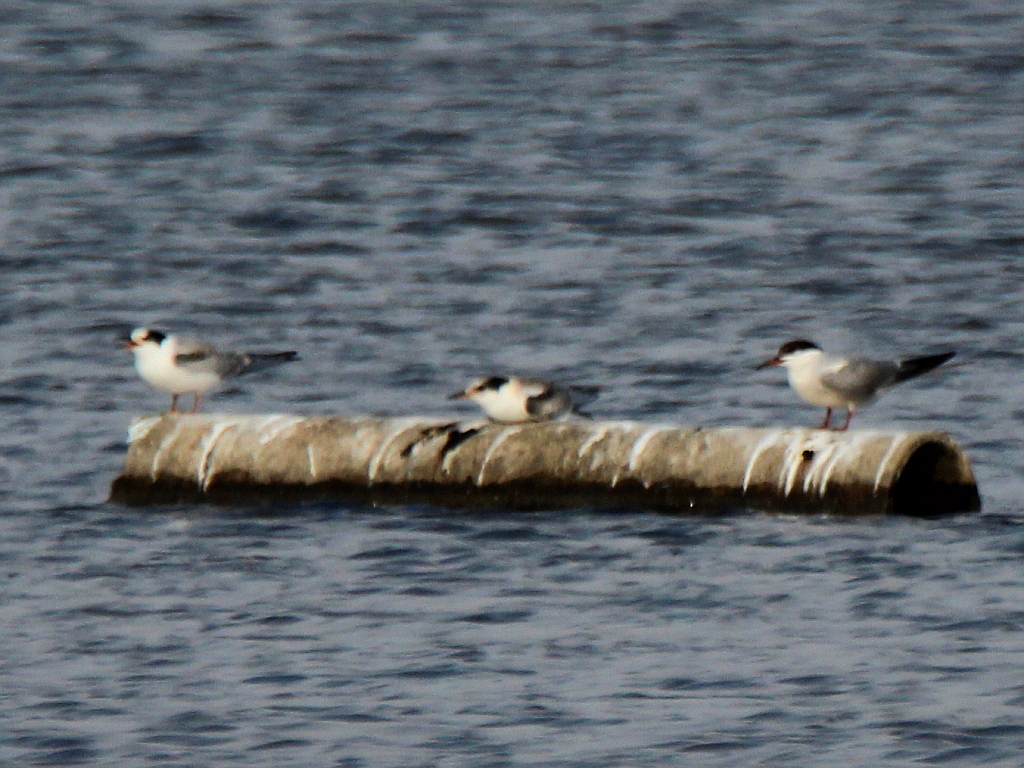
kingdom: Animalia
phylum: Chordata
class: Aves
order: Charadriiformes
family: Laridae
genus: Sterna
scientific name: Sterna hirundo
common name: Common tern
